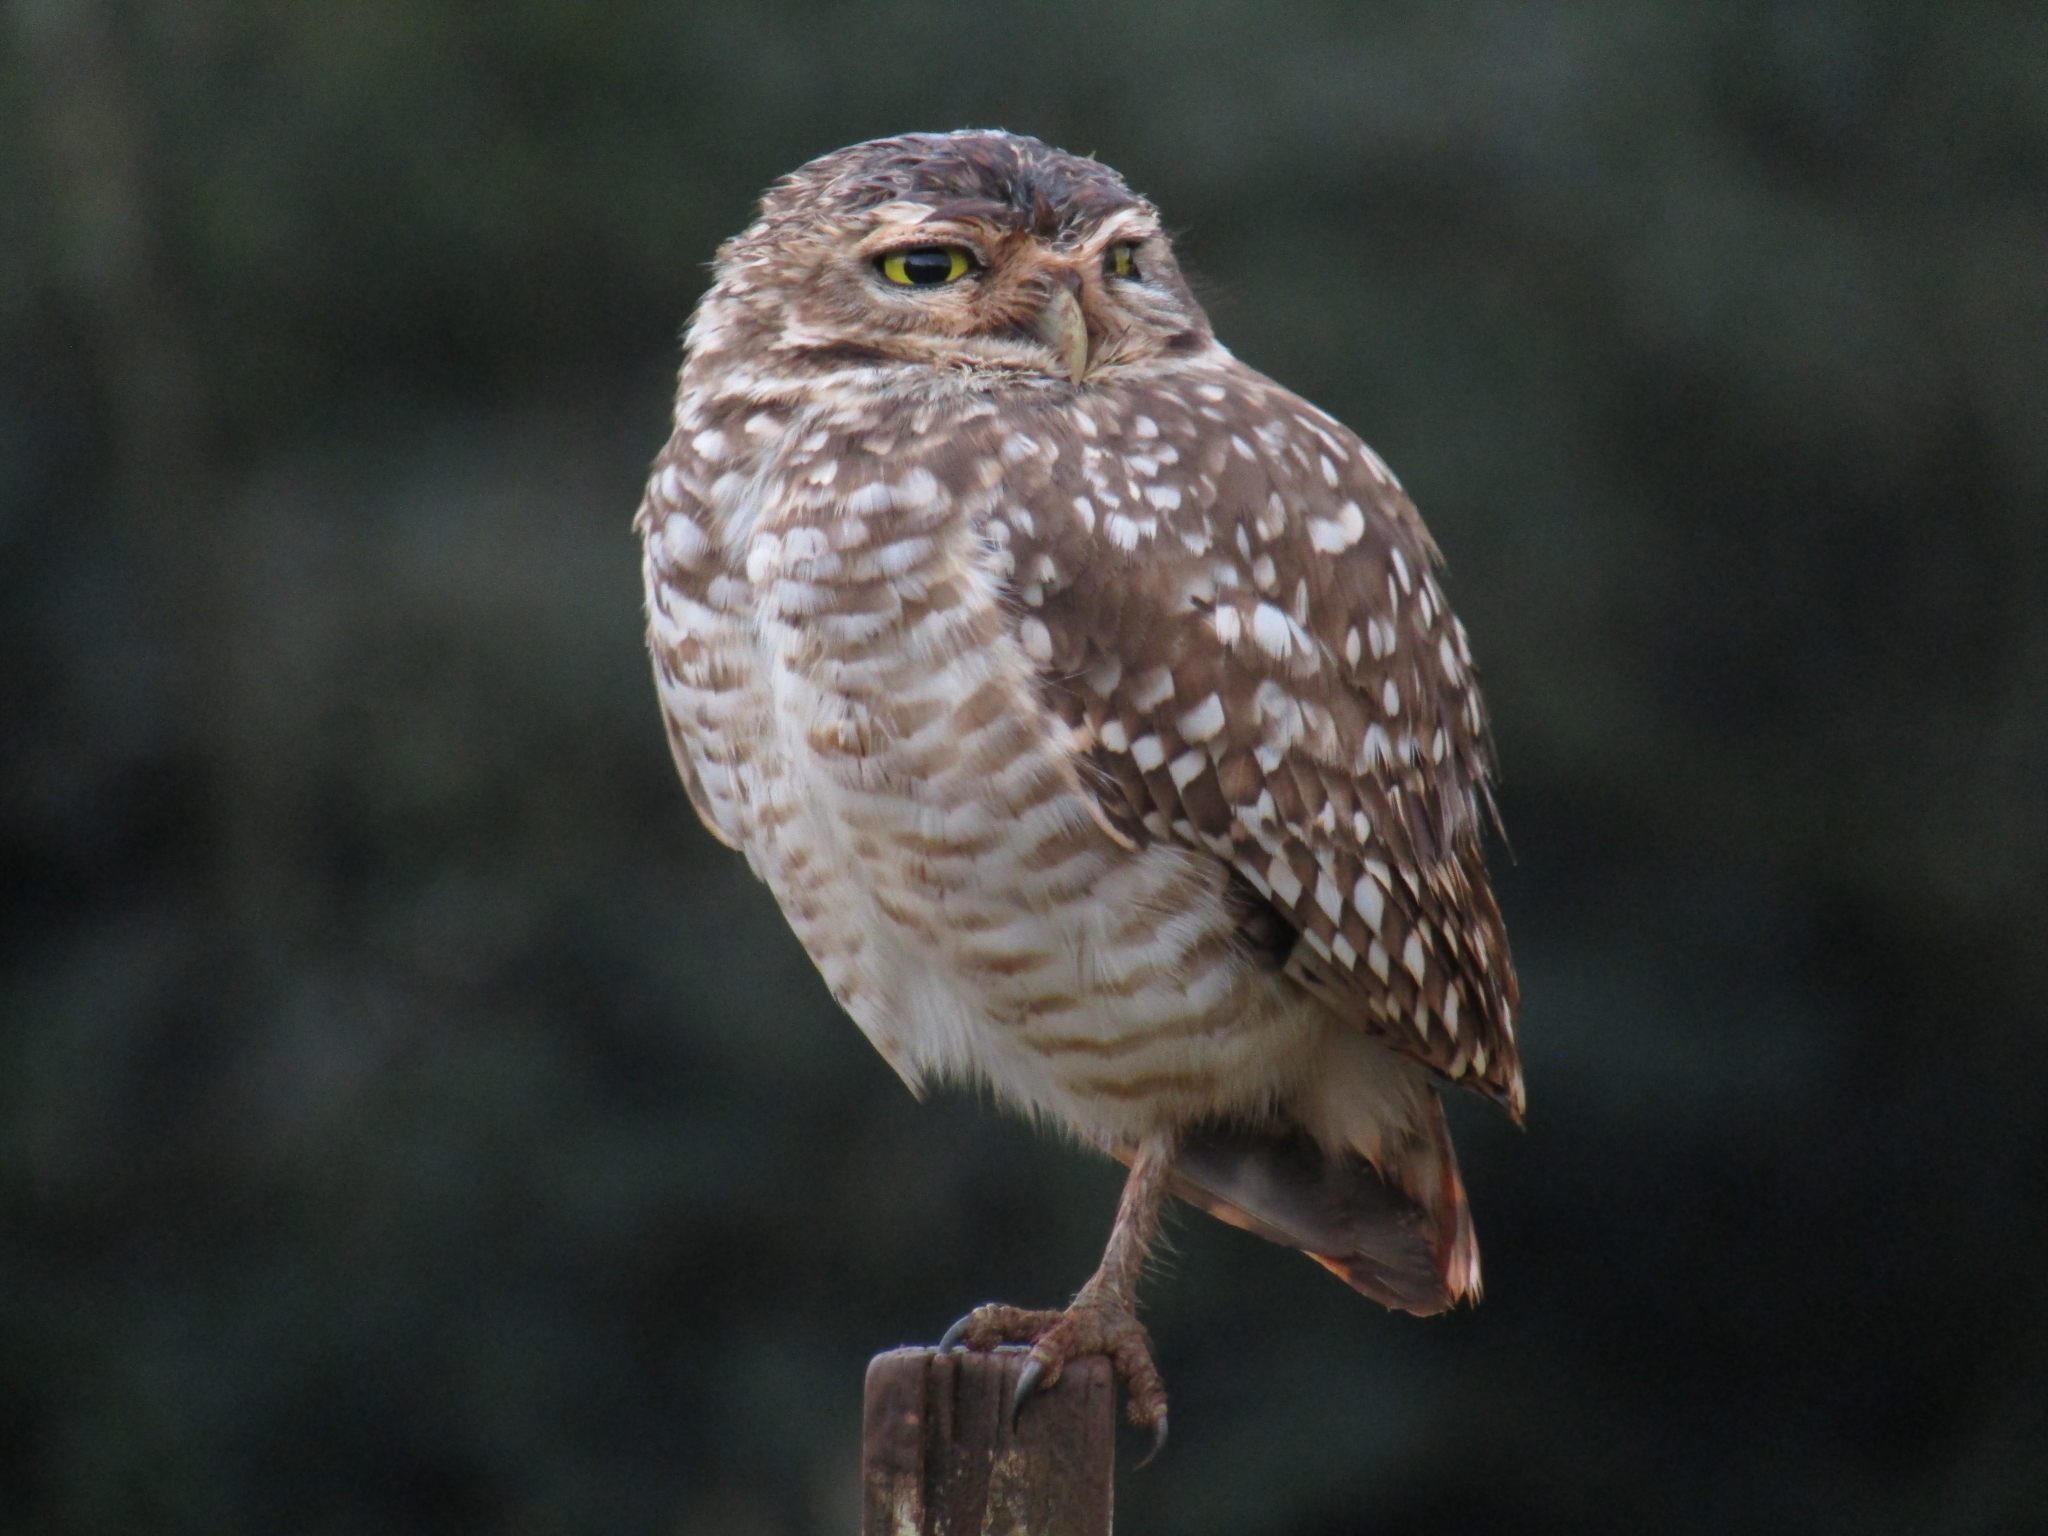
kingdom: Animalia
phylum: Chordata
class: Aves
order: Strigiformes
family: Strigidae
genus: Athene
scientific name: Athene cunicularia
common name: Burrowing owl
